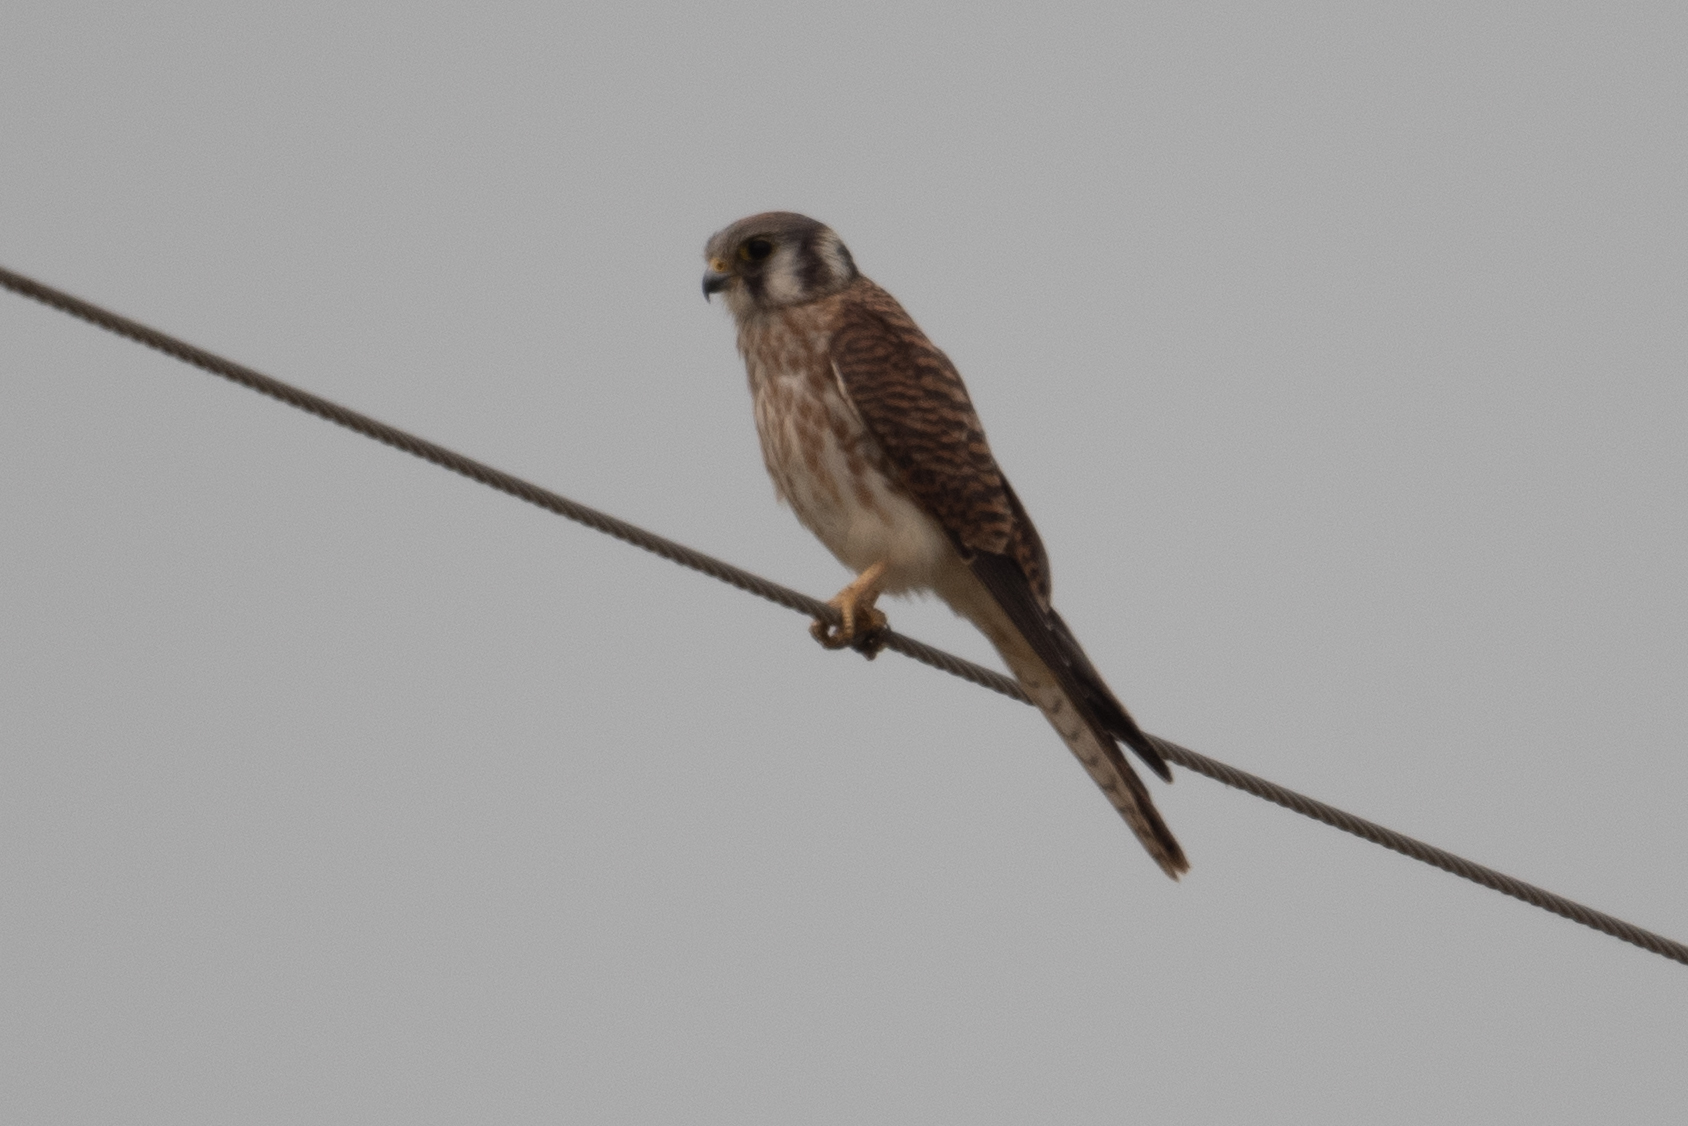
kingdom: Animalia
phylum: Chordata
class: Aves
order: Falconiformes
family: Falconidae
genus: Falco
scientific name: Falco sparverius
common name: American kestrel
